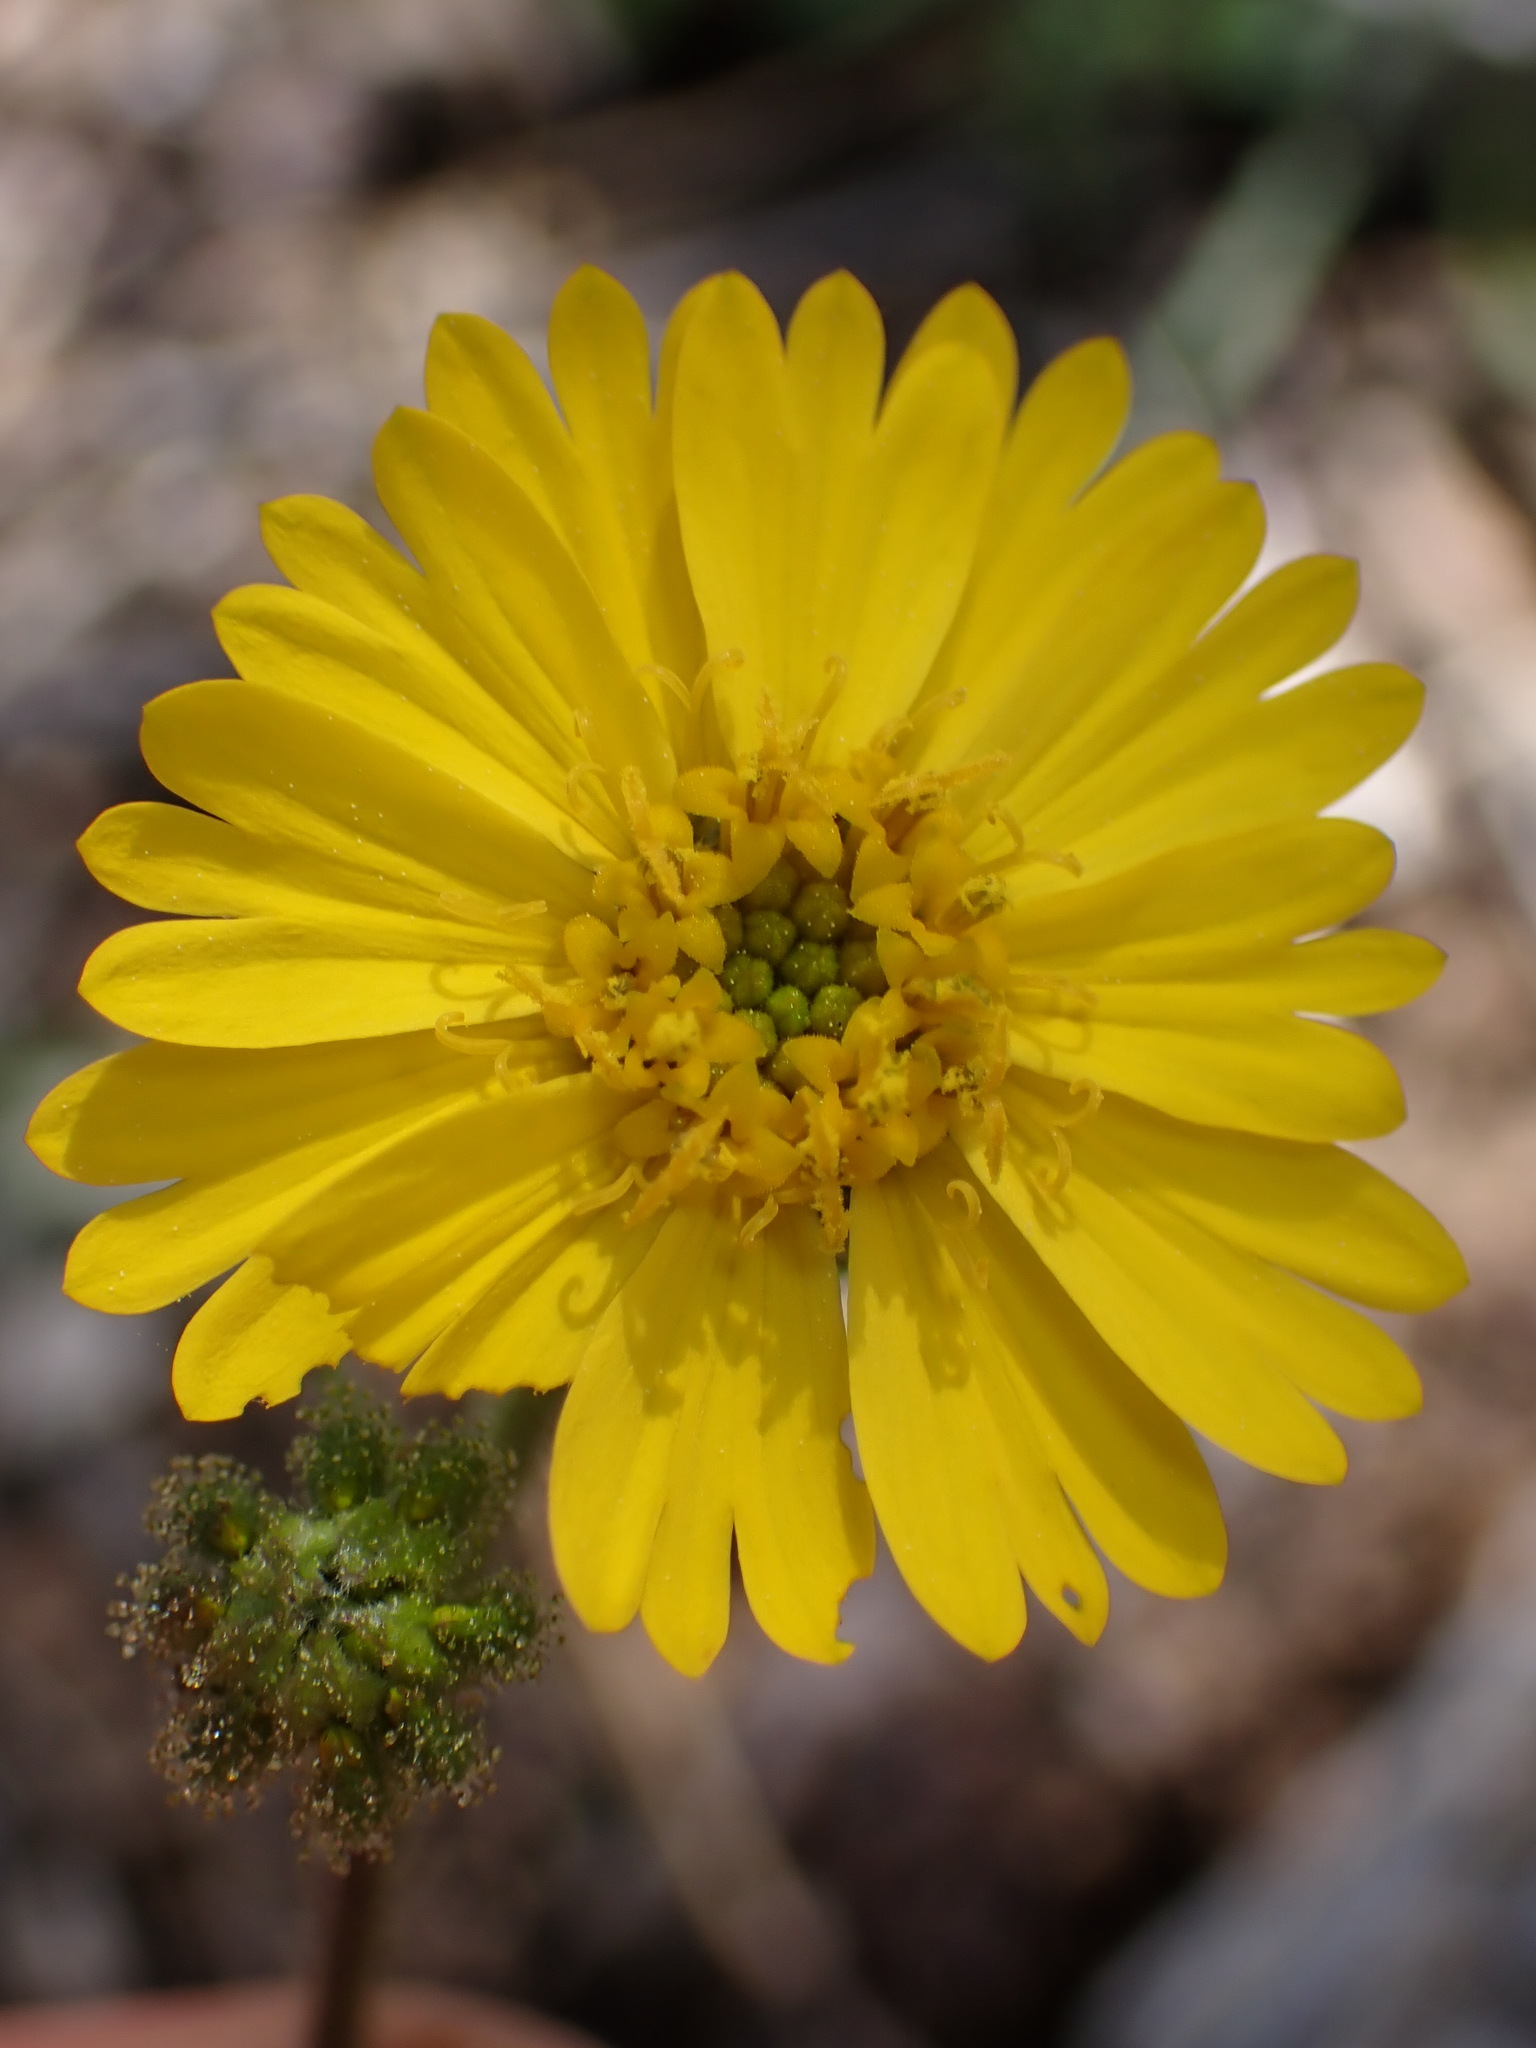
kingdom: Plantae
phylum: Tracheophyta
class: Magnoliopsida
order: Asterales
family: Asteraceae
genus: Anisocarpus
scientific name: Anisocarpus madioides
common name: Woodland madia
